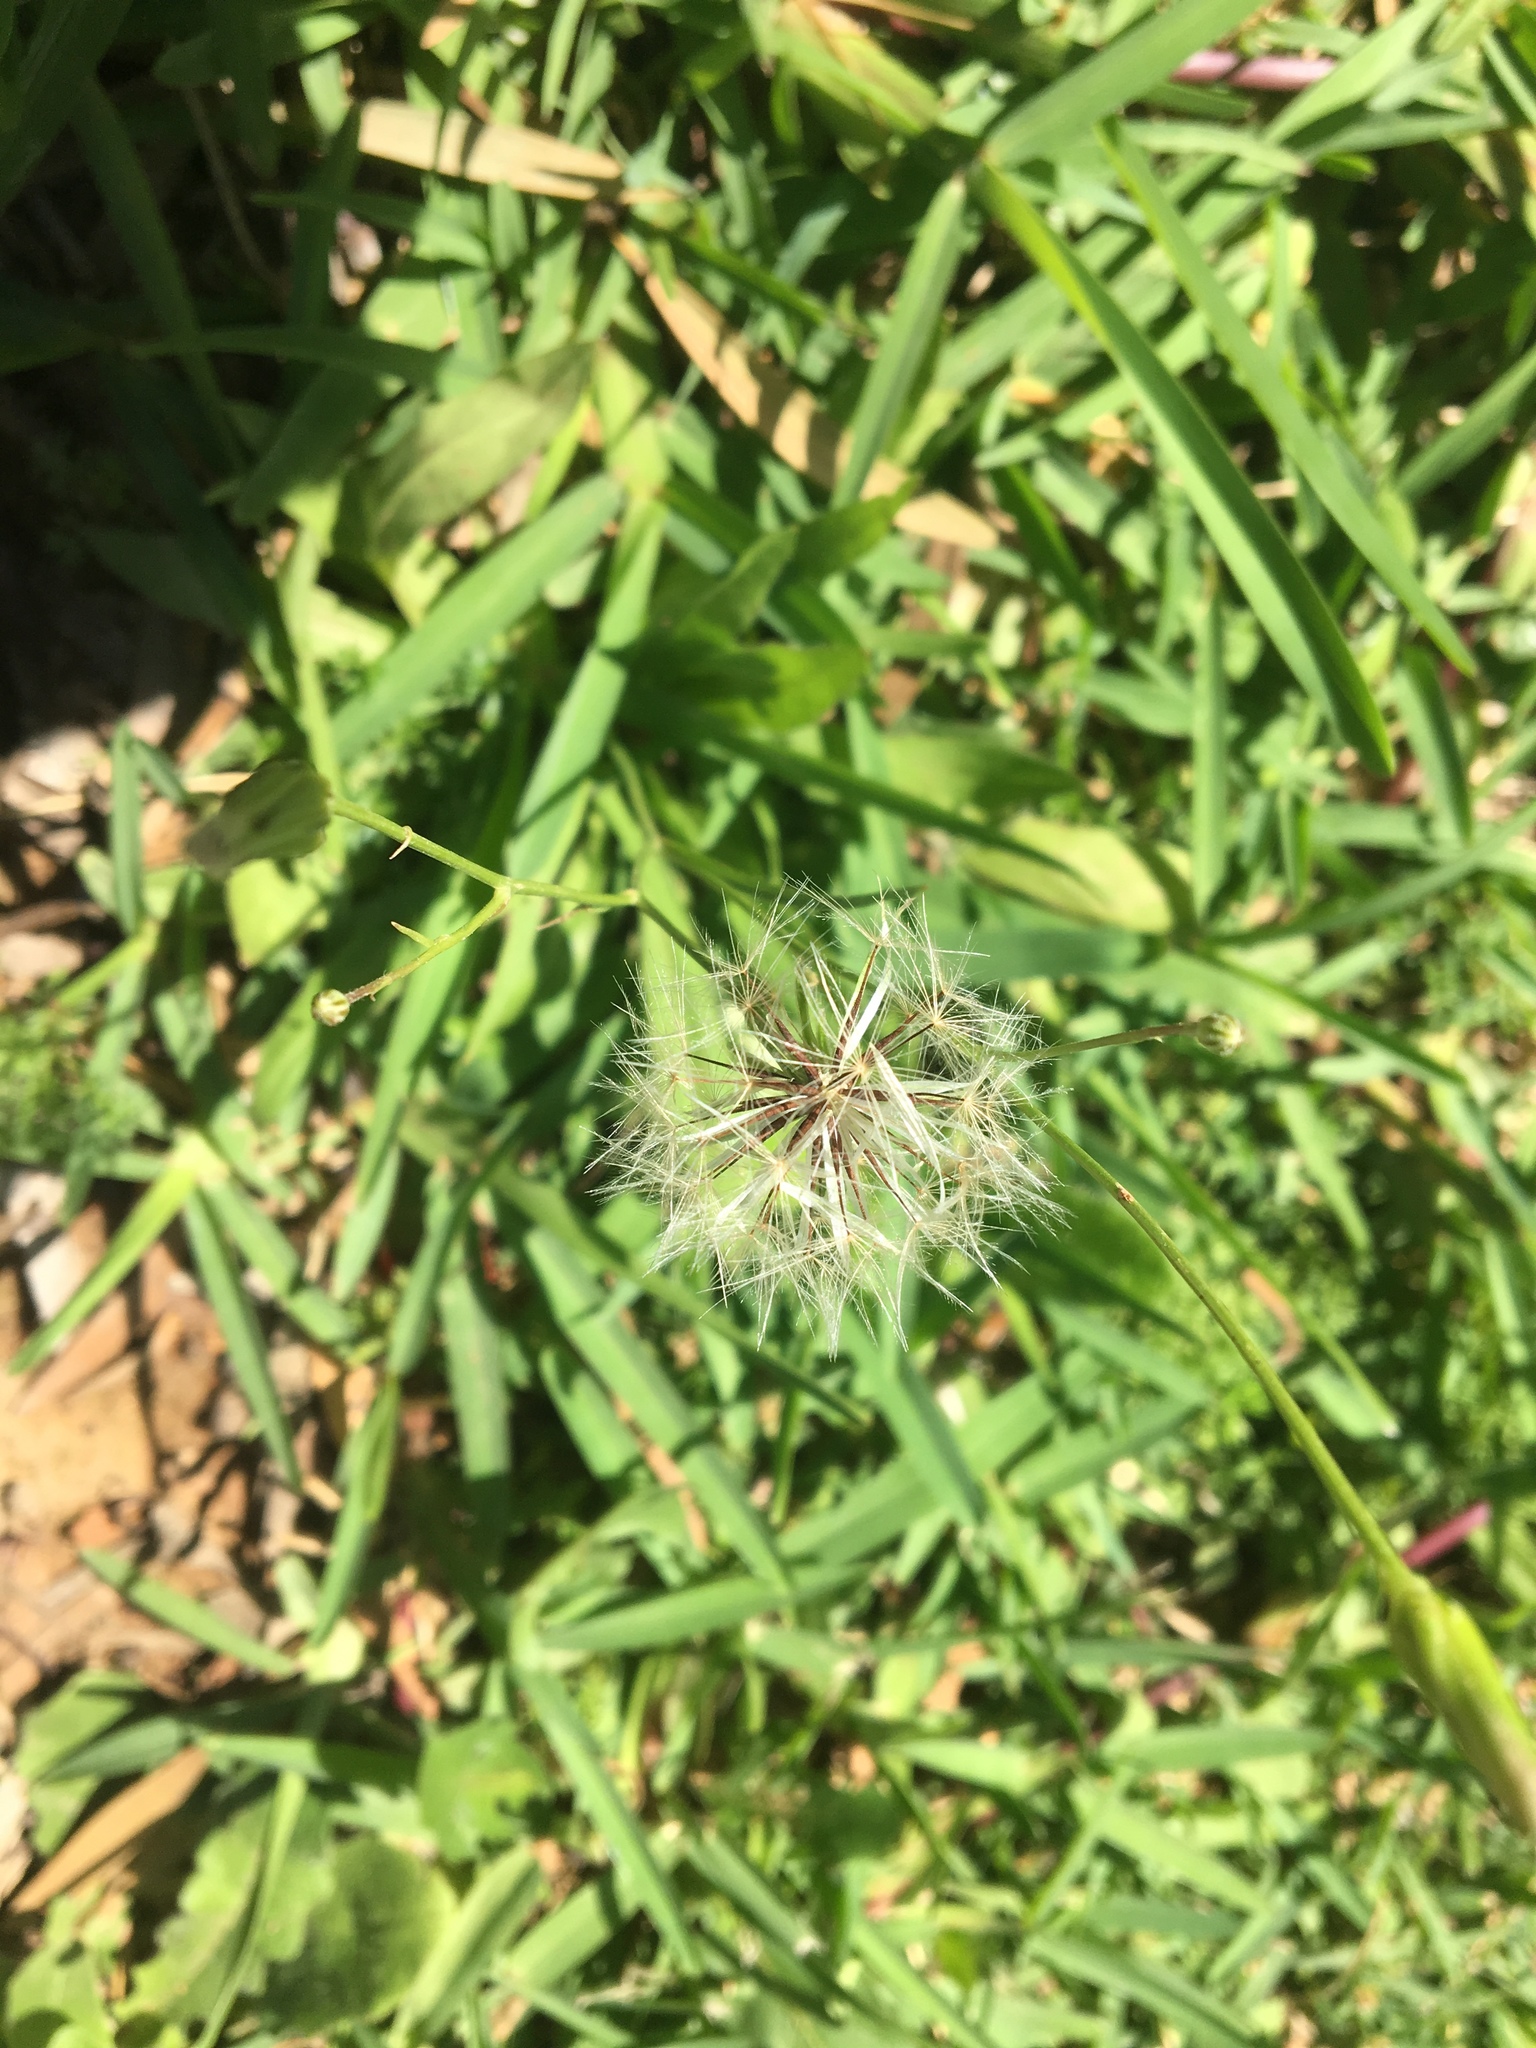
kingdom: Plantae
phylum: Tracheophyta
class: Magnoliopsida
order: Asterales
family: Asteraceae
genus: Hypochaeris
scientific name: Hypochaeris albiflora
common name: White flatweed
